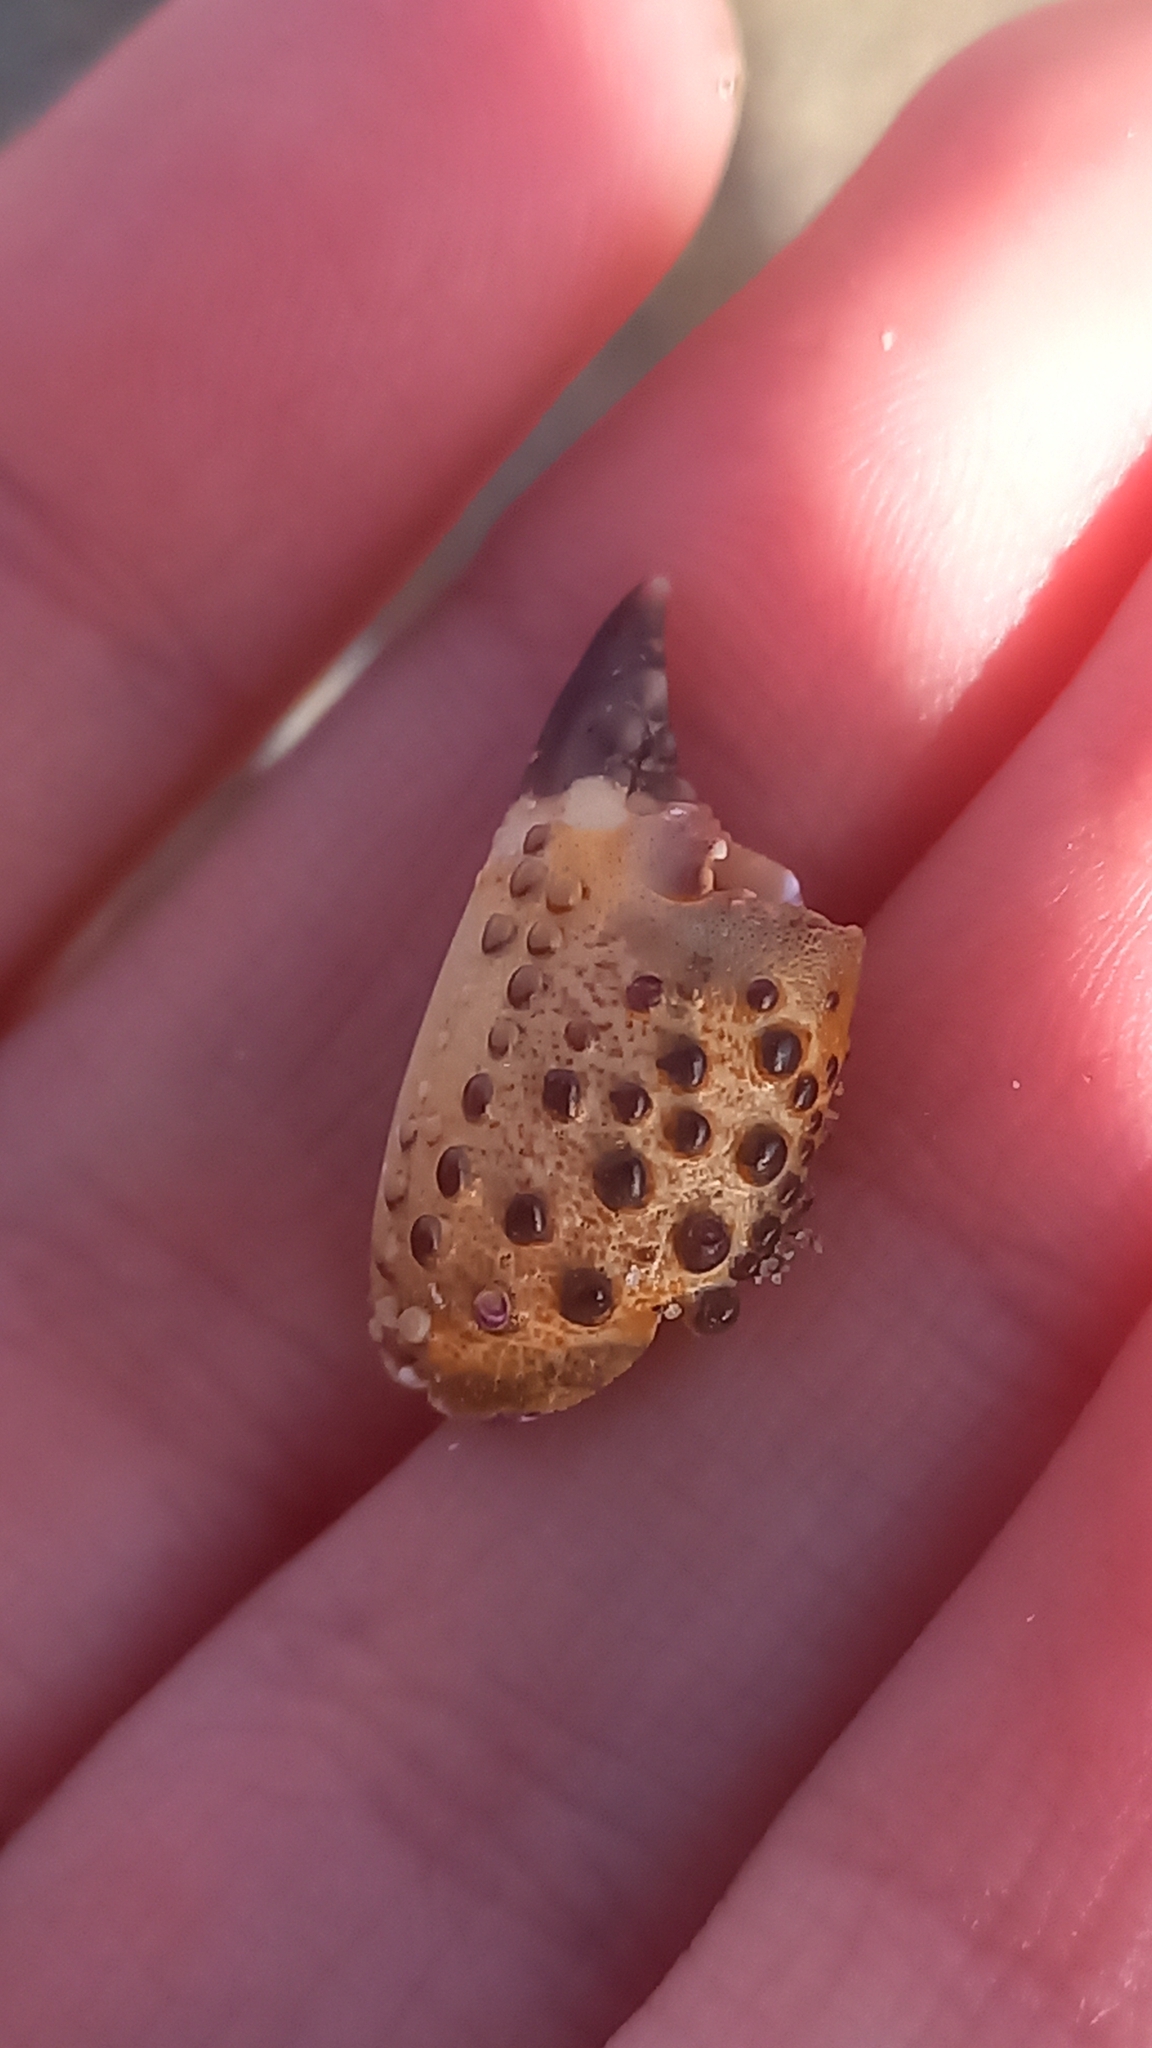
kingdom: Animalia
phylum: Arthropoda
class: Malacostraca
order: Decapoda
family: Eriphiidae
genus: Eriphia
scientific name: Eriphia verrucosa
